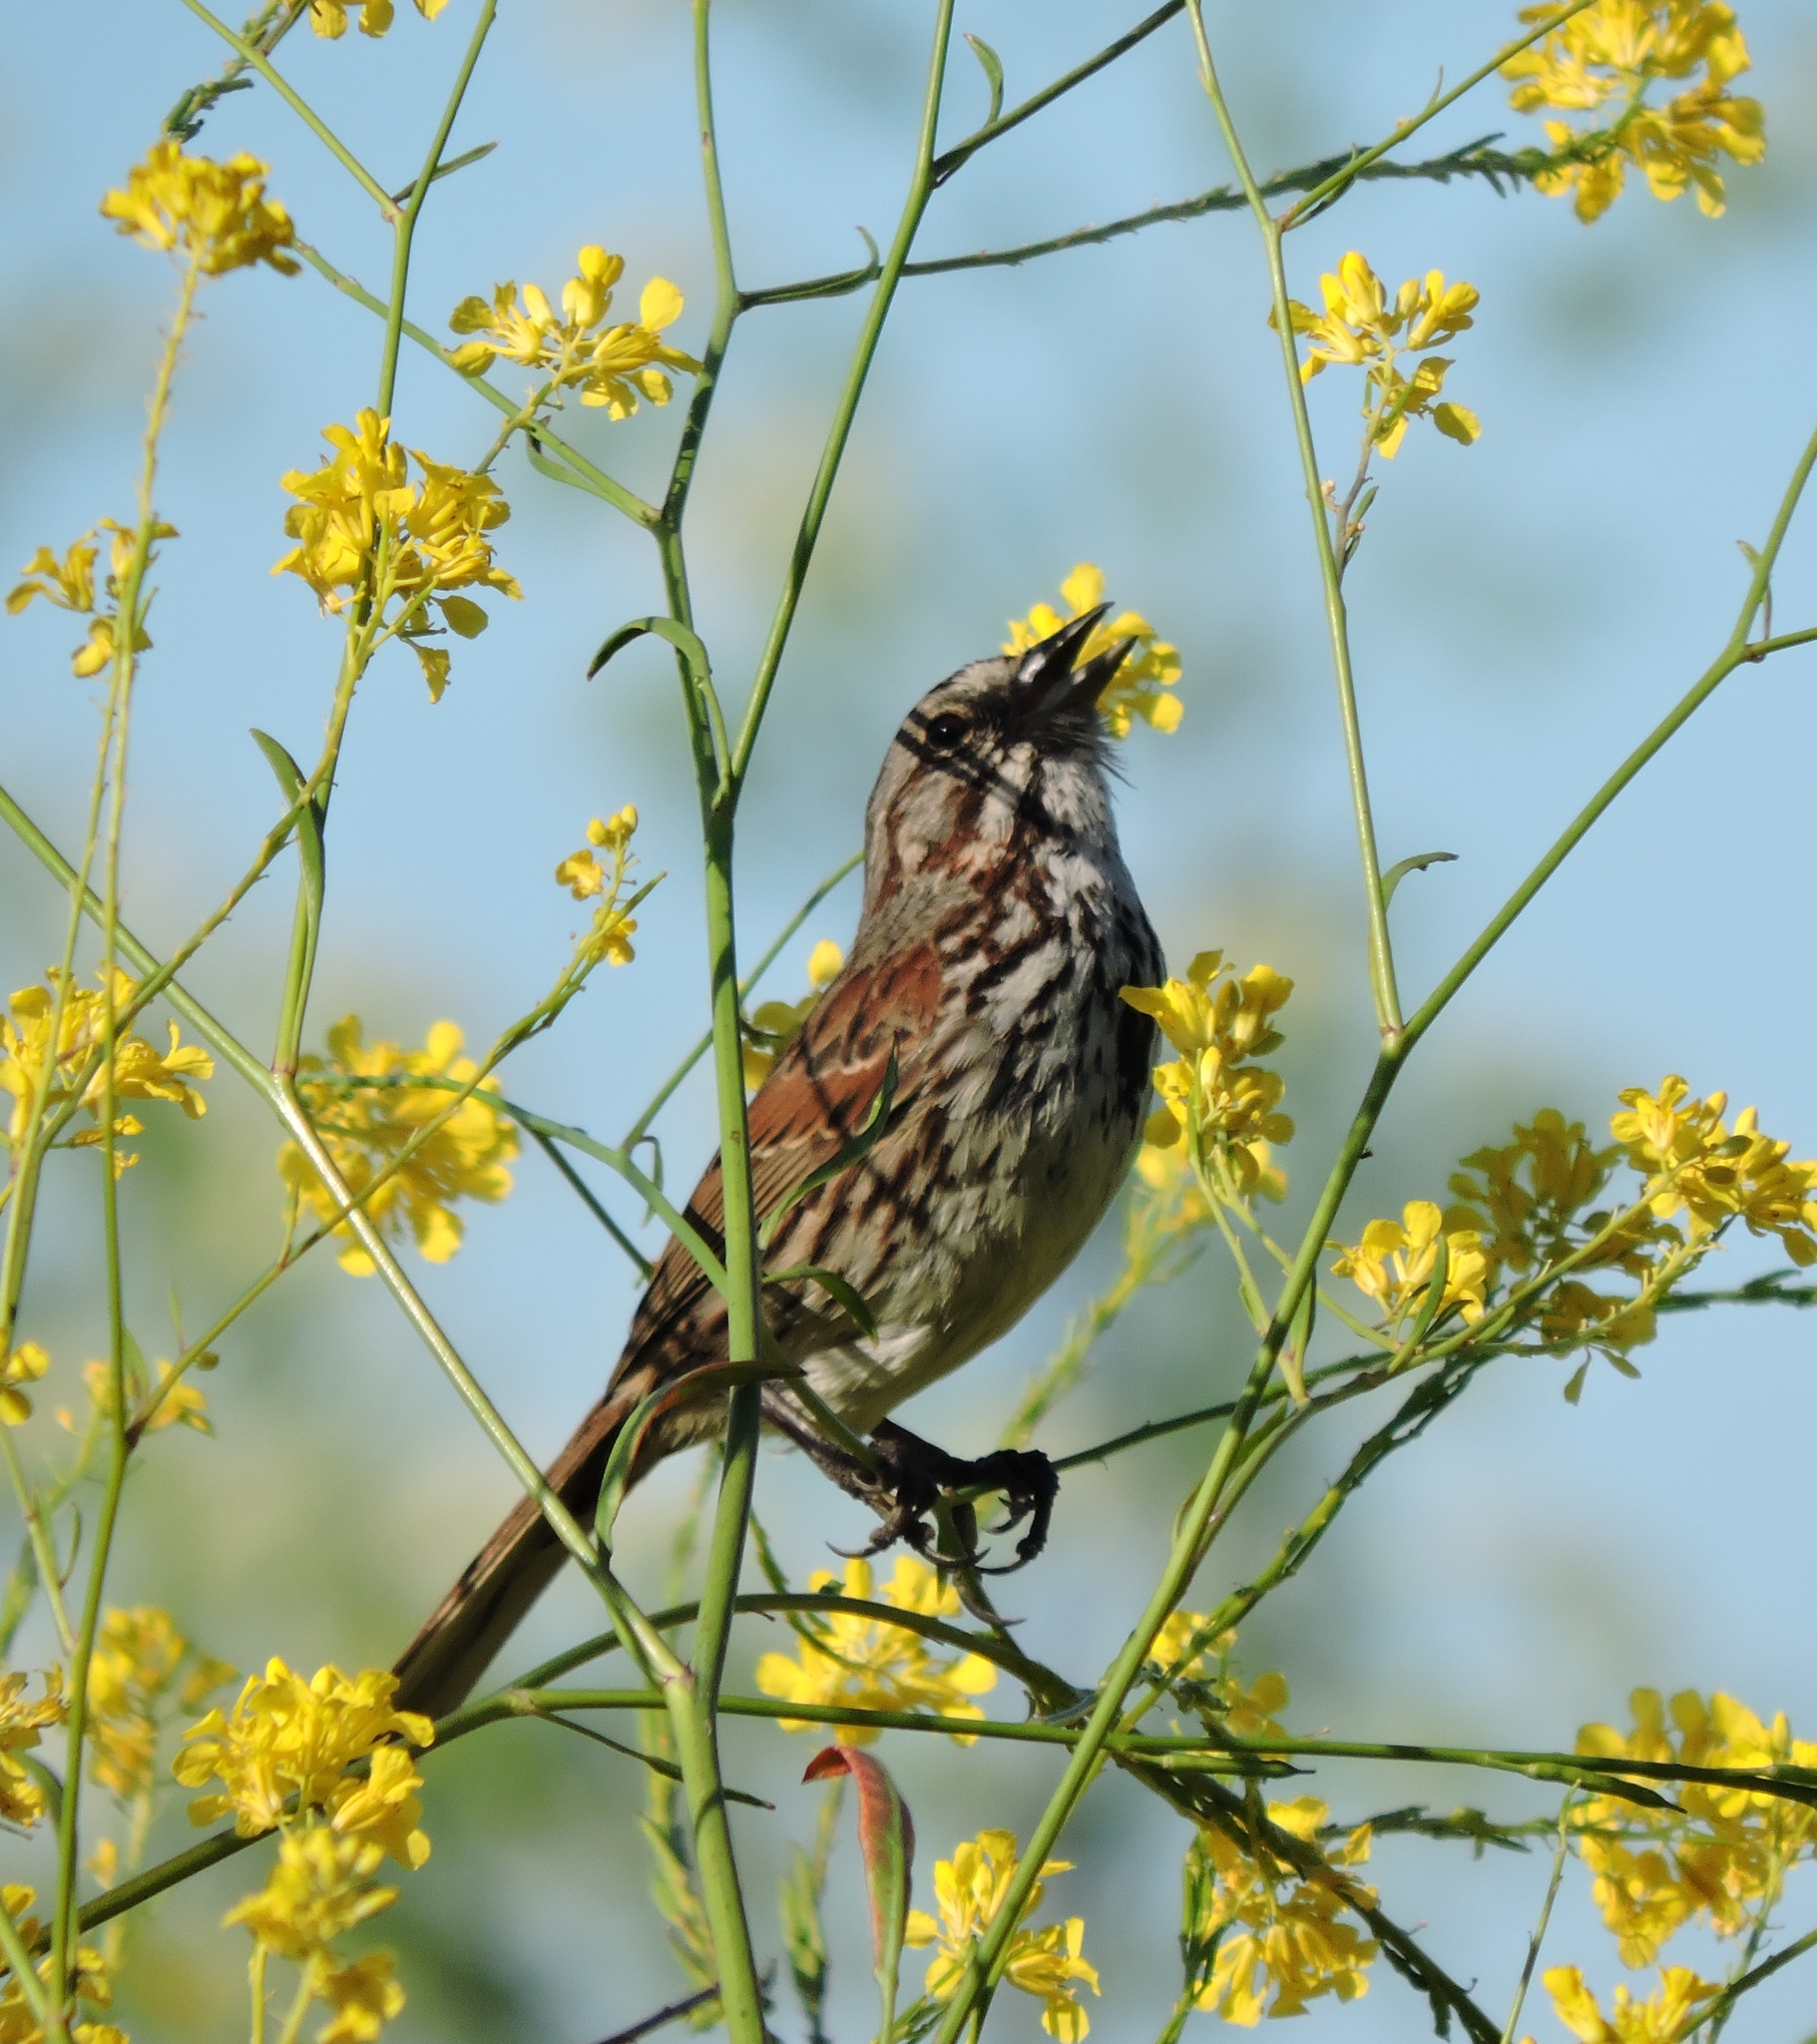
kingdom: Animalia
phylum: Chordata
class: Aves
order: Passeriformes
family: Passerellidae
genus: Melospiza
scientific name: Melospiza melodia
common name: Song sparrow
